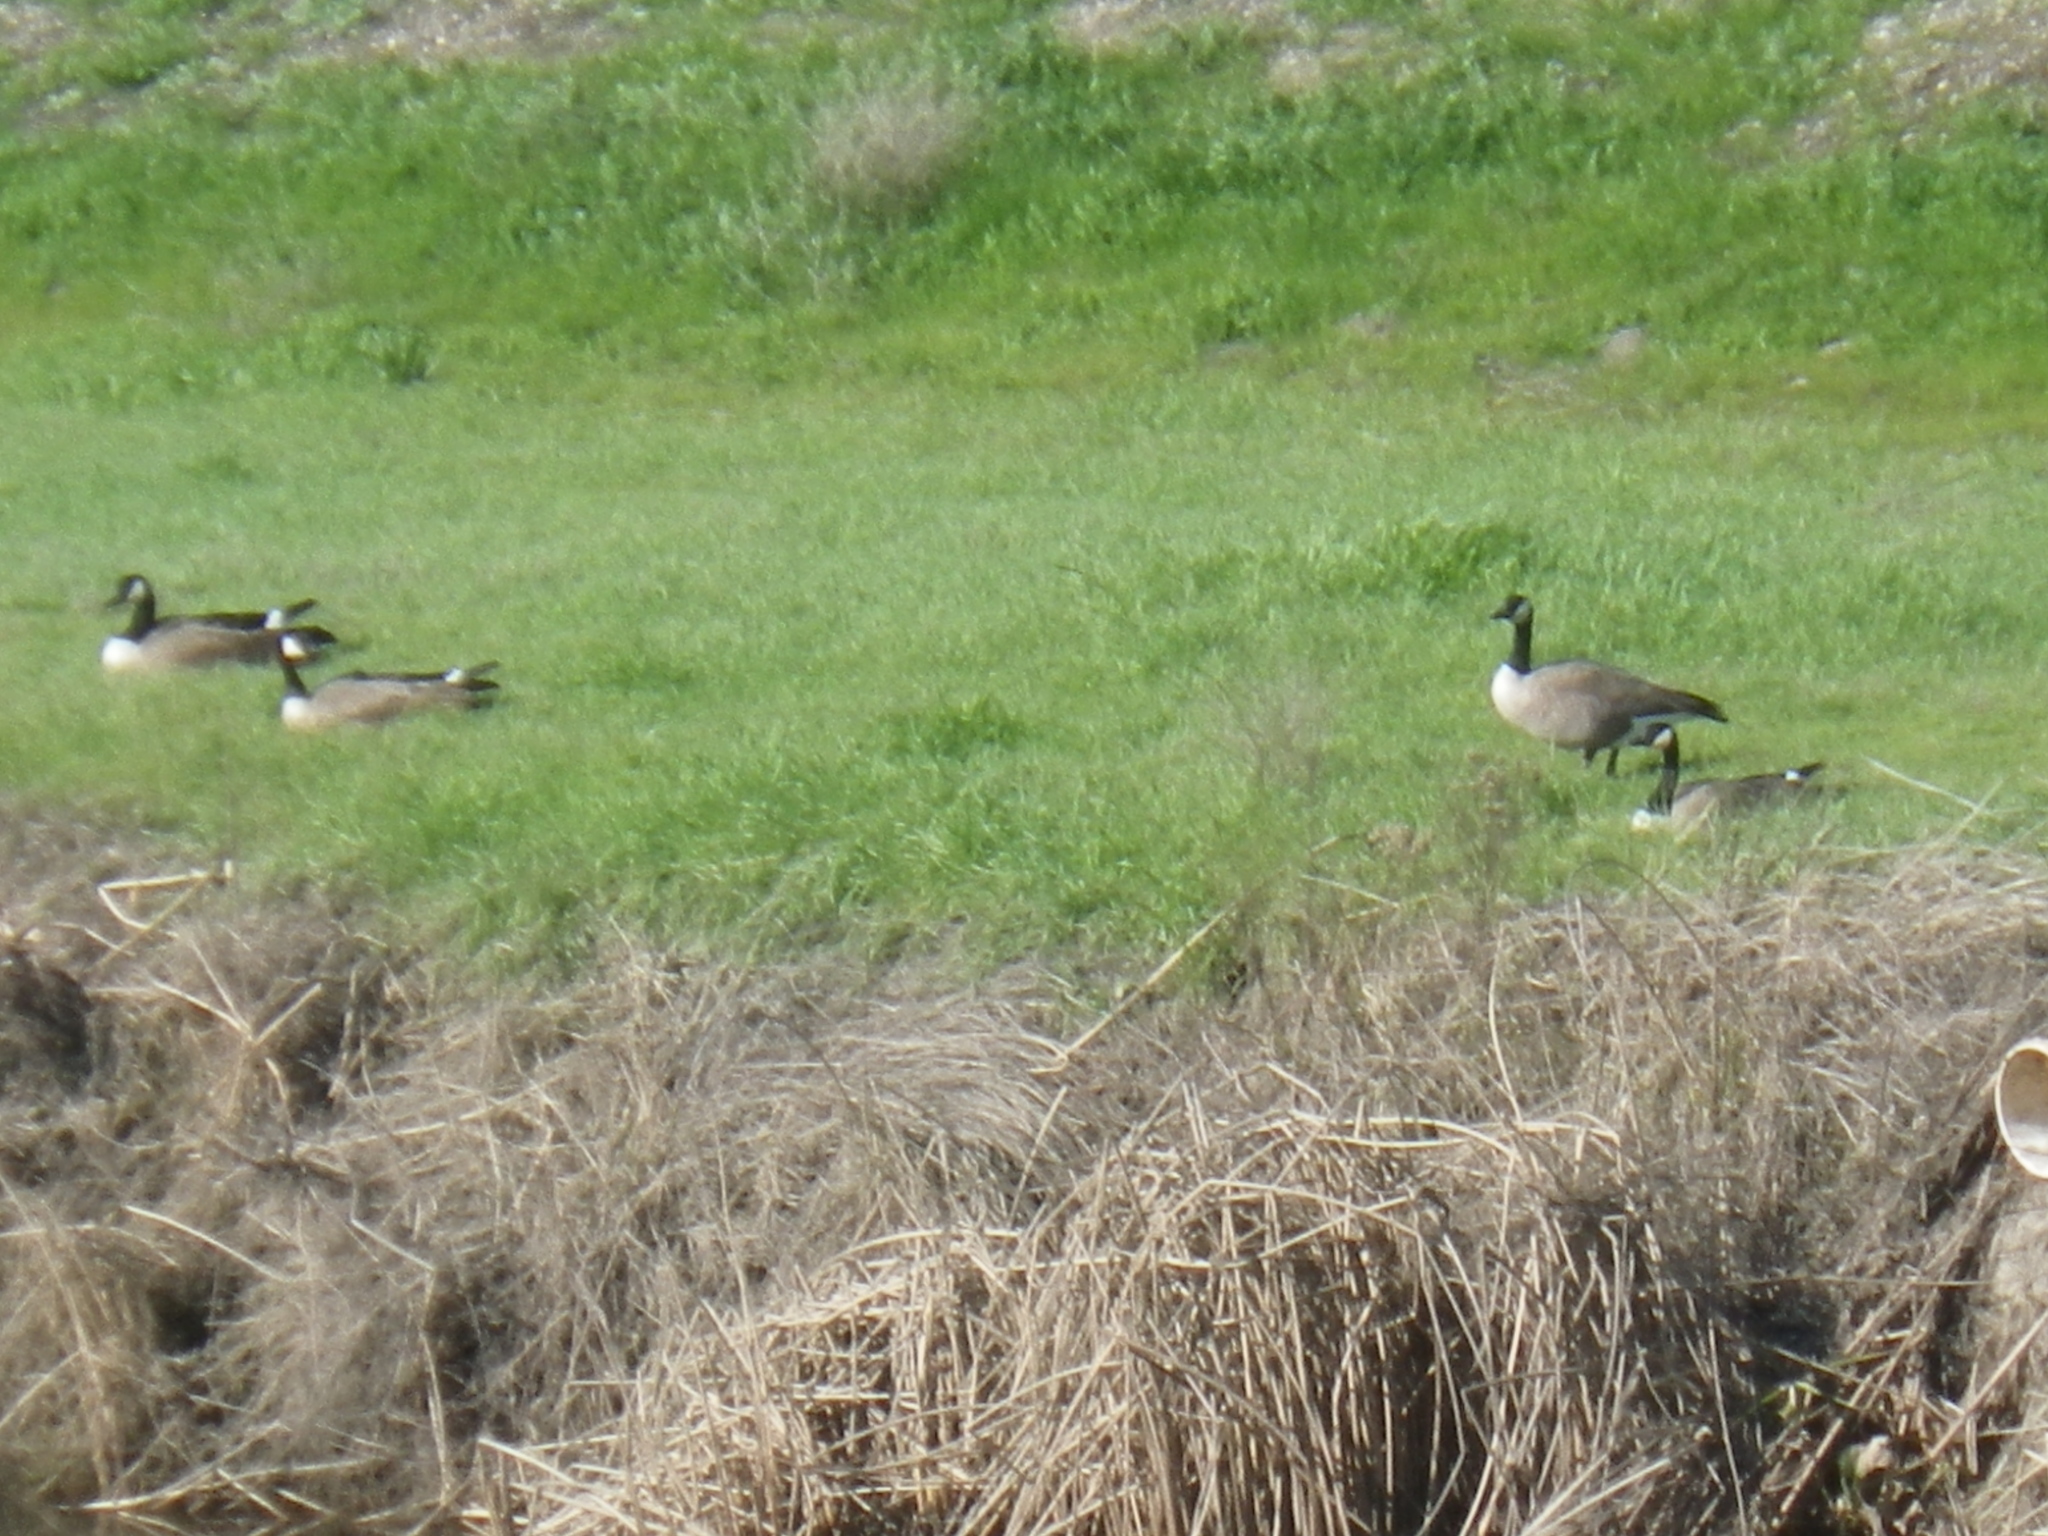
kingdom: Animalia
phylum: Chordata
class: Aves
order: Anseriformes
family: Anatidae
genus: Branta
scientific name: Branta canadensis
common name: Canada goose
